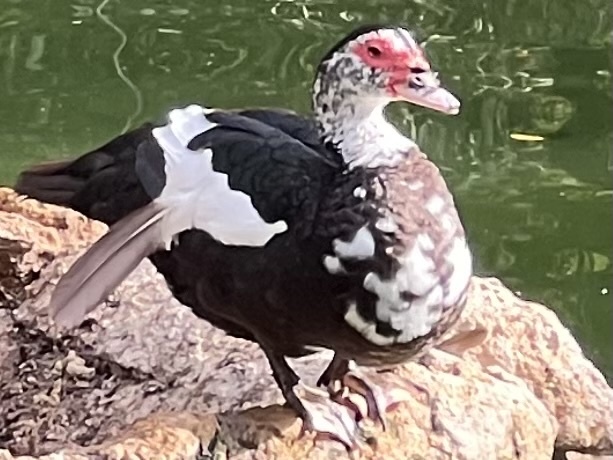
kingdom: Animalia
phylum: Chordata
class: Aves
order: Anseriformes
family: Anatidae
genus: Cairina
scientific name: Cairina moschata
